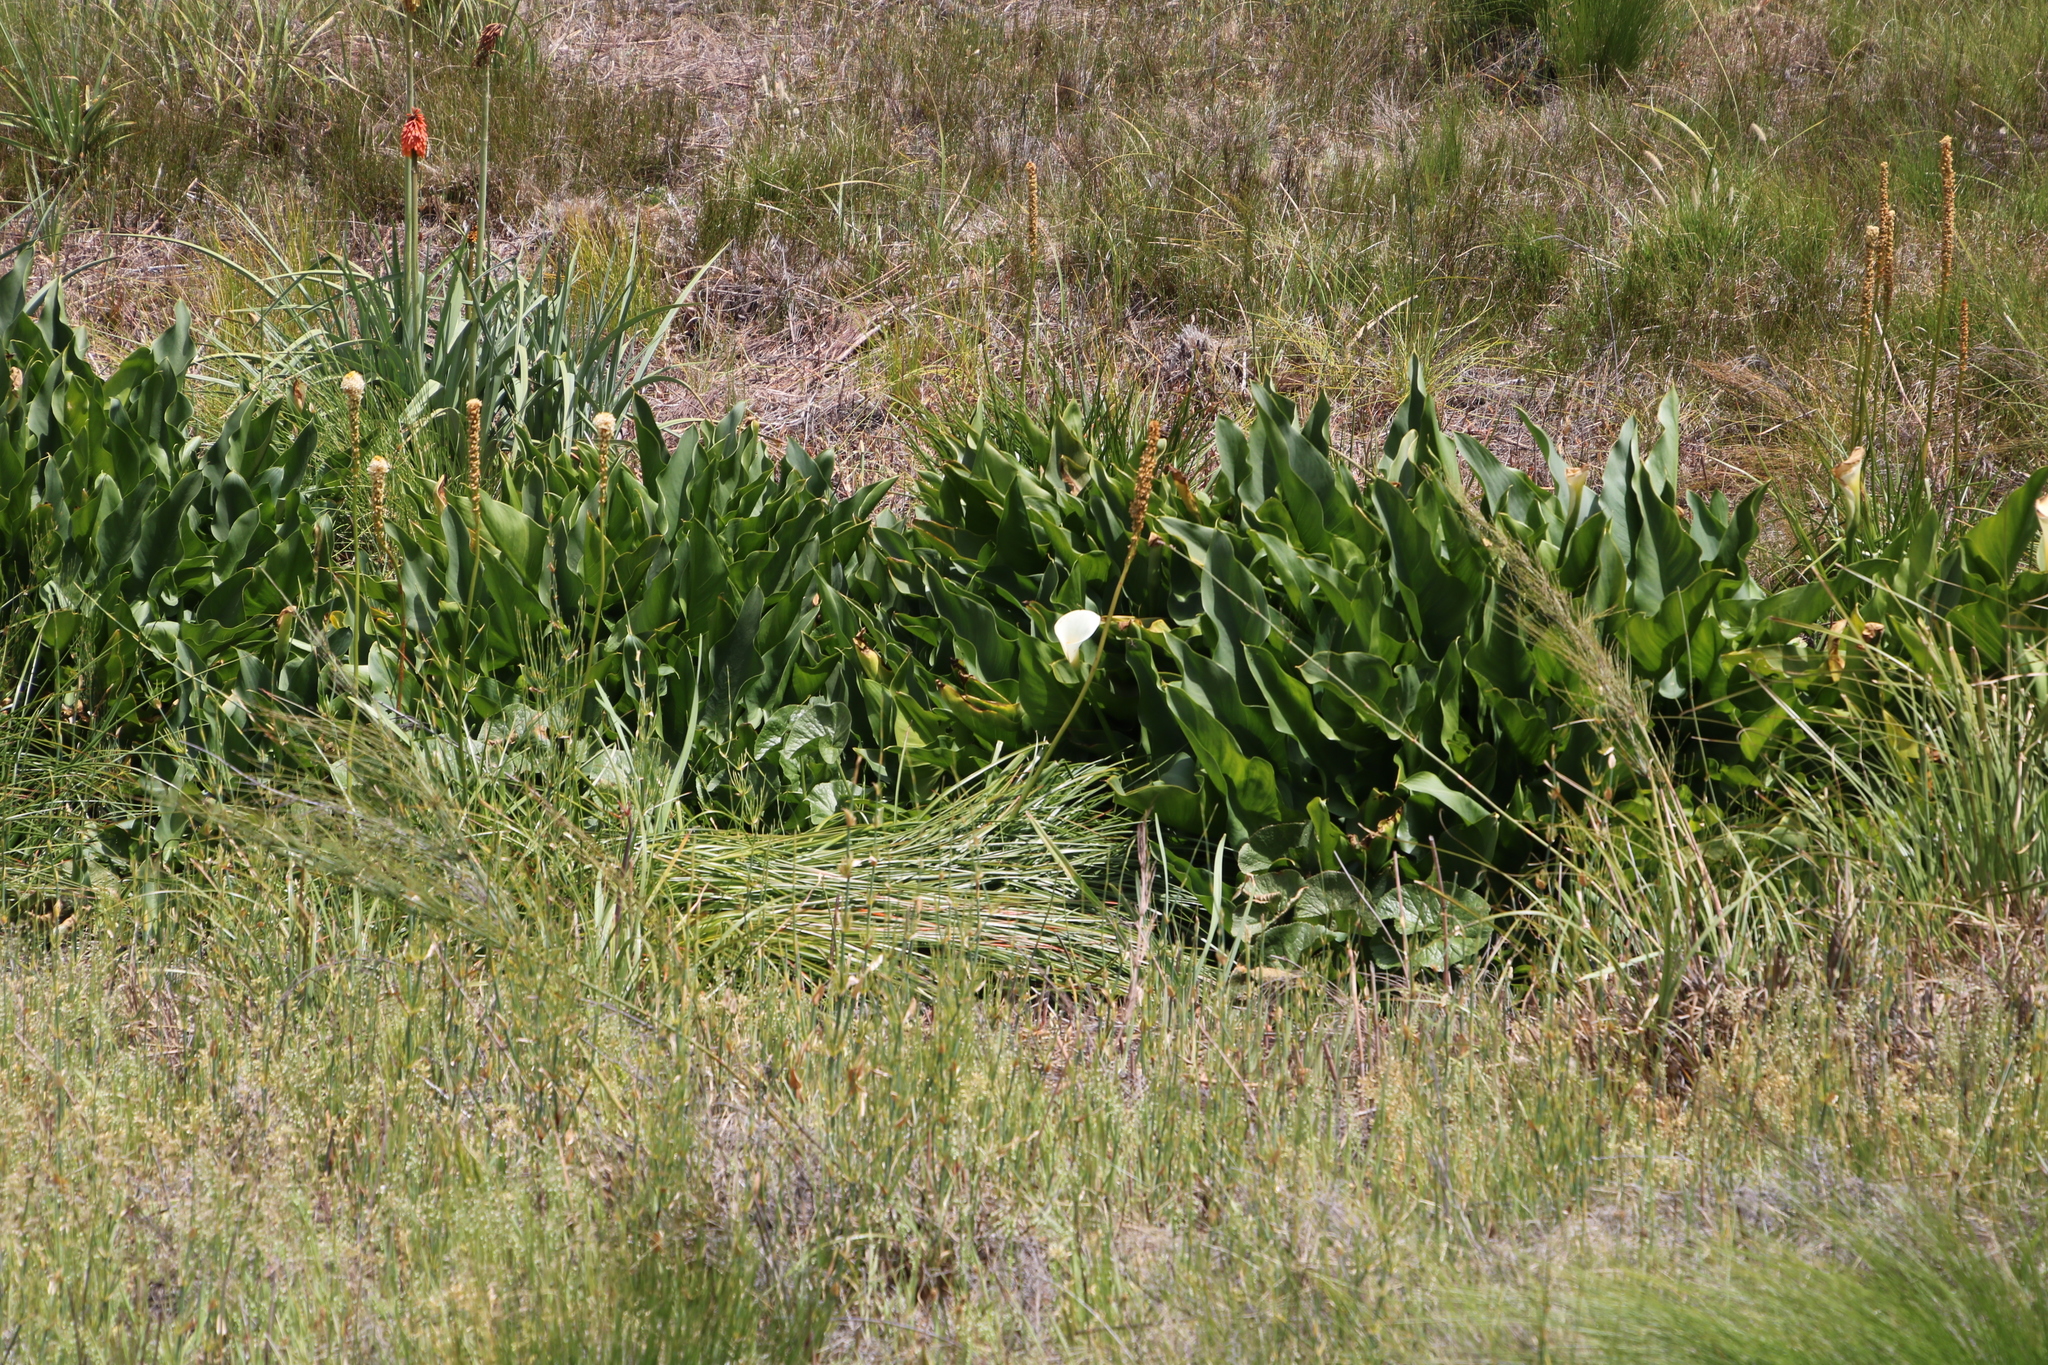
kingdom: Plantae
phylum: Tracheophyta
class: Liliopsida
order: Alismatales
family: Araceae
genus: Zantedeschia
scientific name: Zantedeschia aethiopica
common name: Altar-lily
